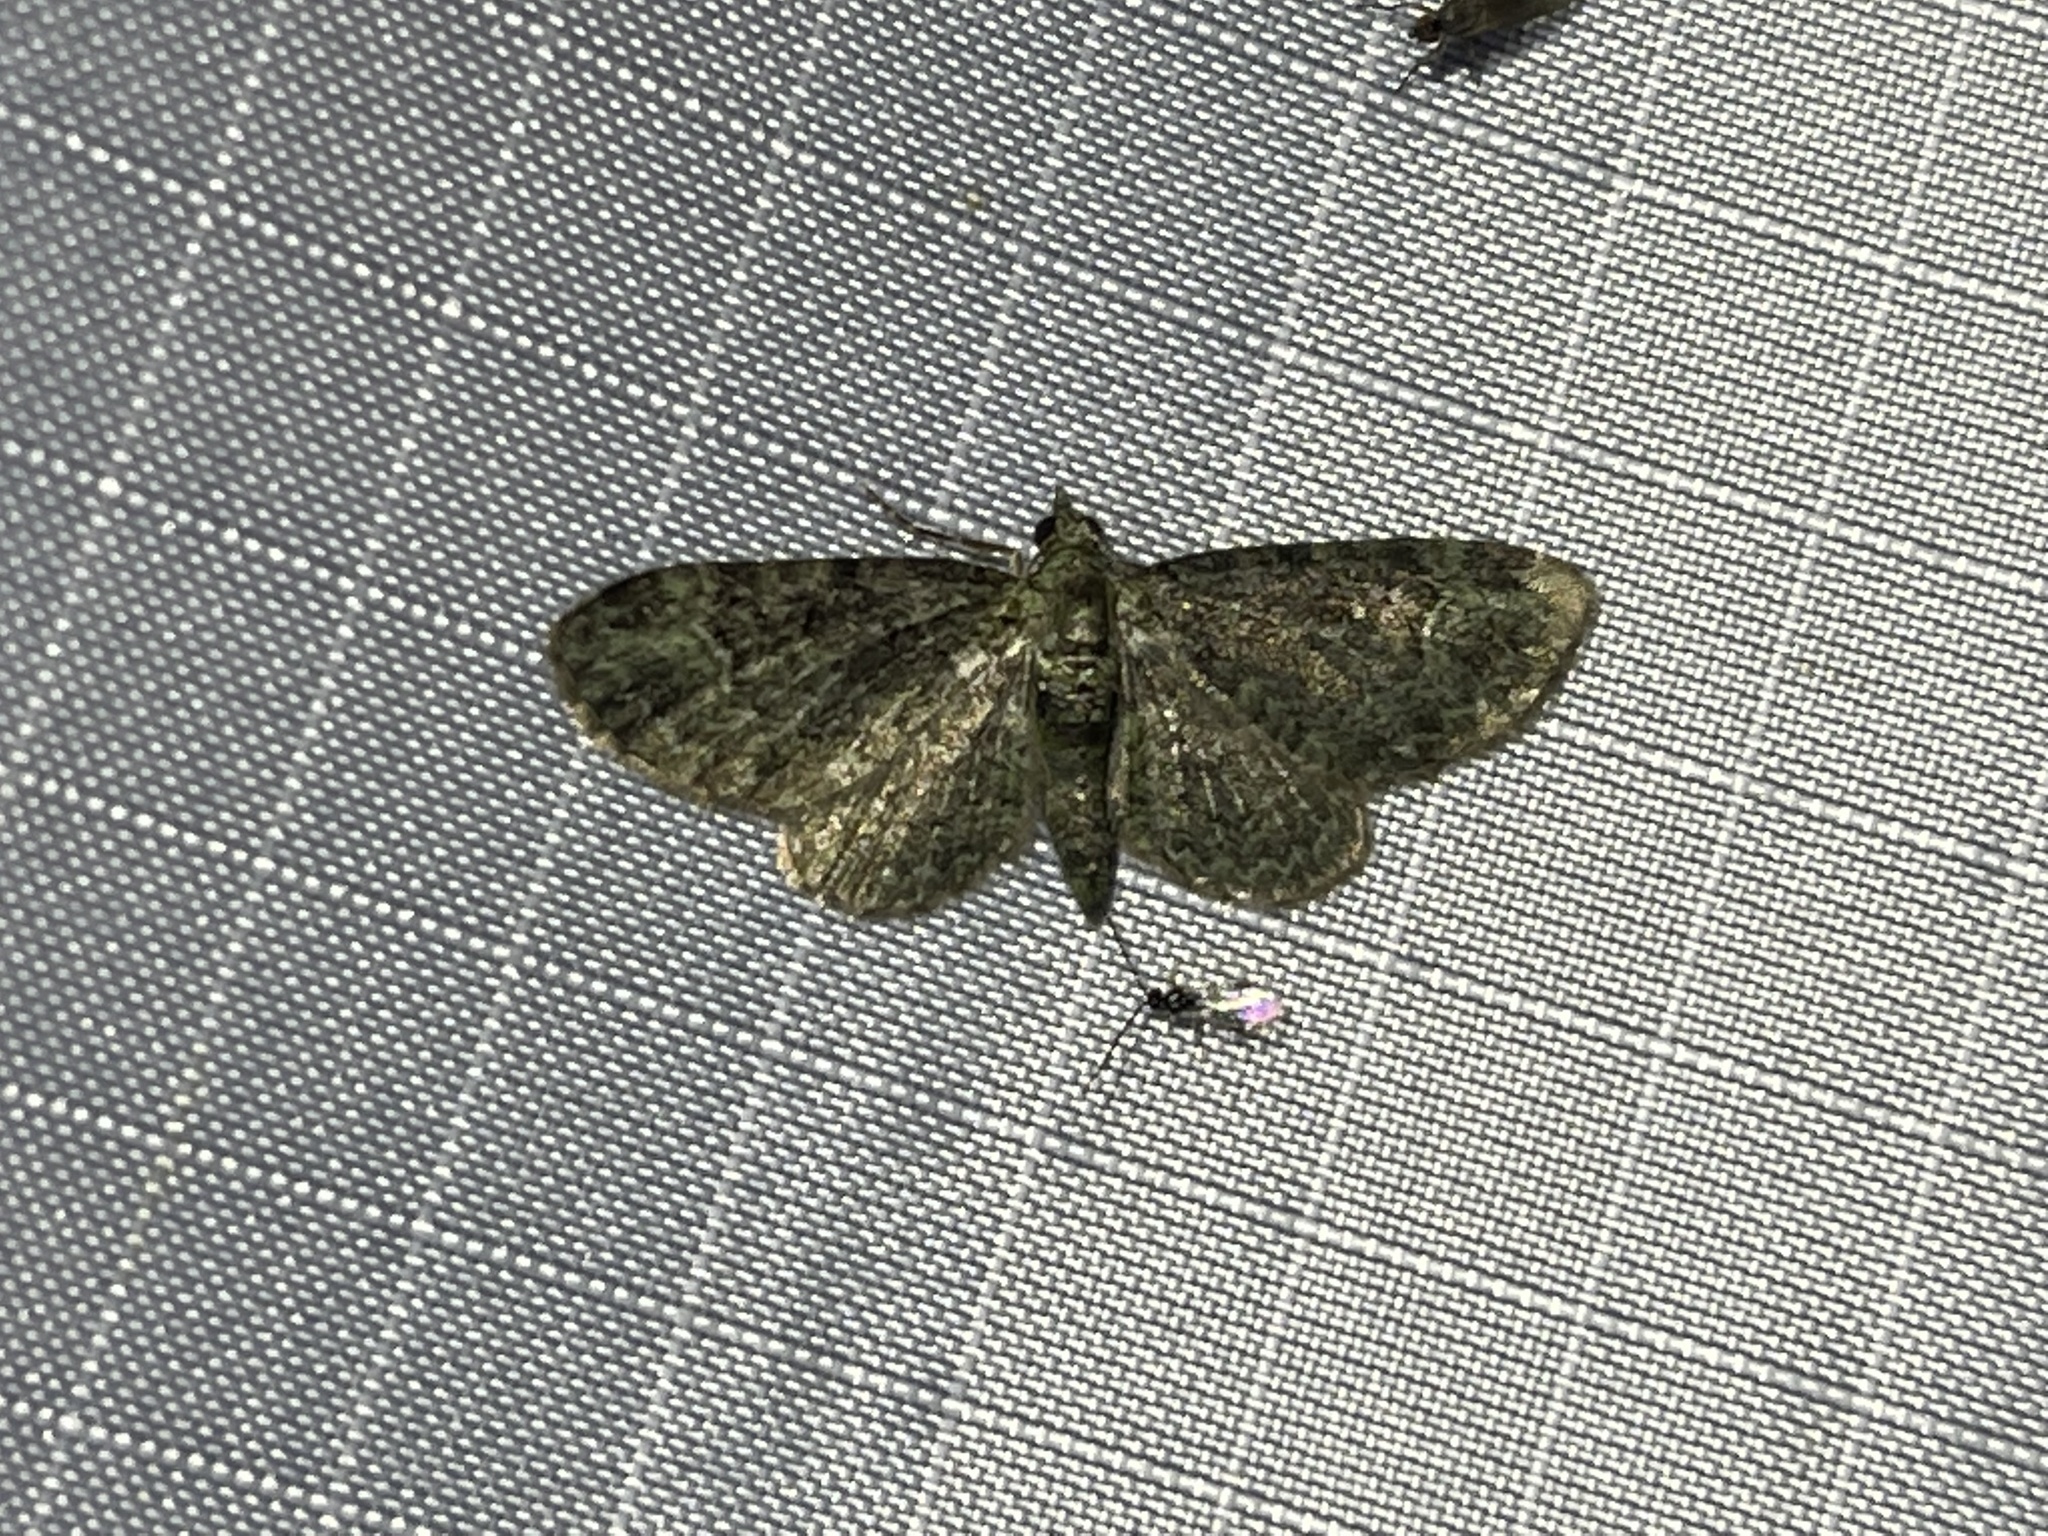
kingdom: Animalia
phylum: Arthropoda
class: Insecta
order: Lepidoptera
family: Geometridae
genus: Pasiphila
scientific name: Pasiphila rectangulata
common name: Green pug
